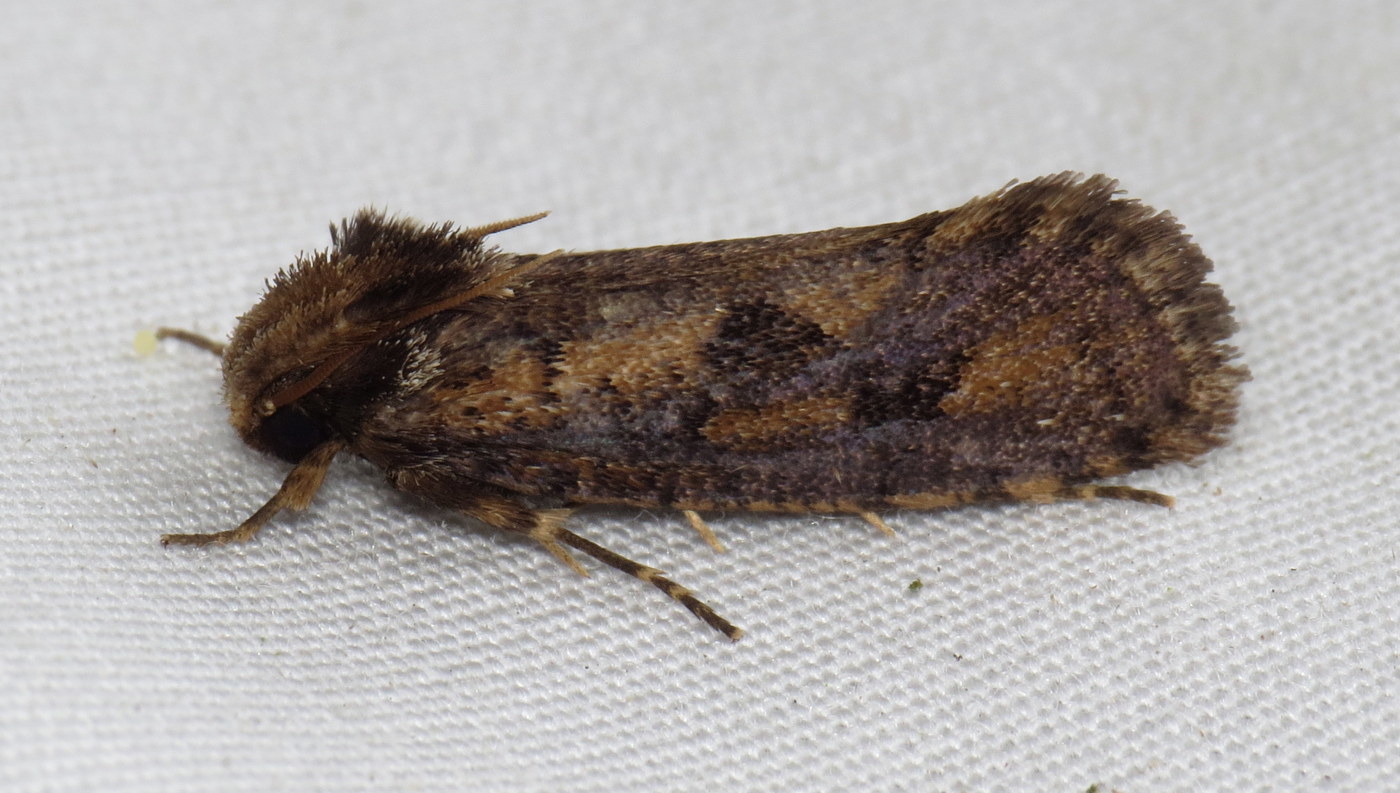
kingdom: Animalia
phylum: Arthropoda
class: Insecta
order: Lepidoptera
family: Tineidae
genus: Acrolophus
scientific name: Acrolophus popeanella
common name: Clemens' grass tubeworm moth
